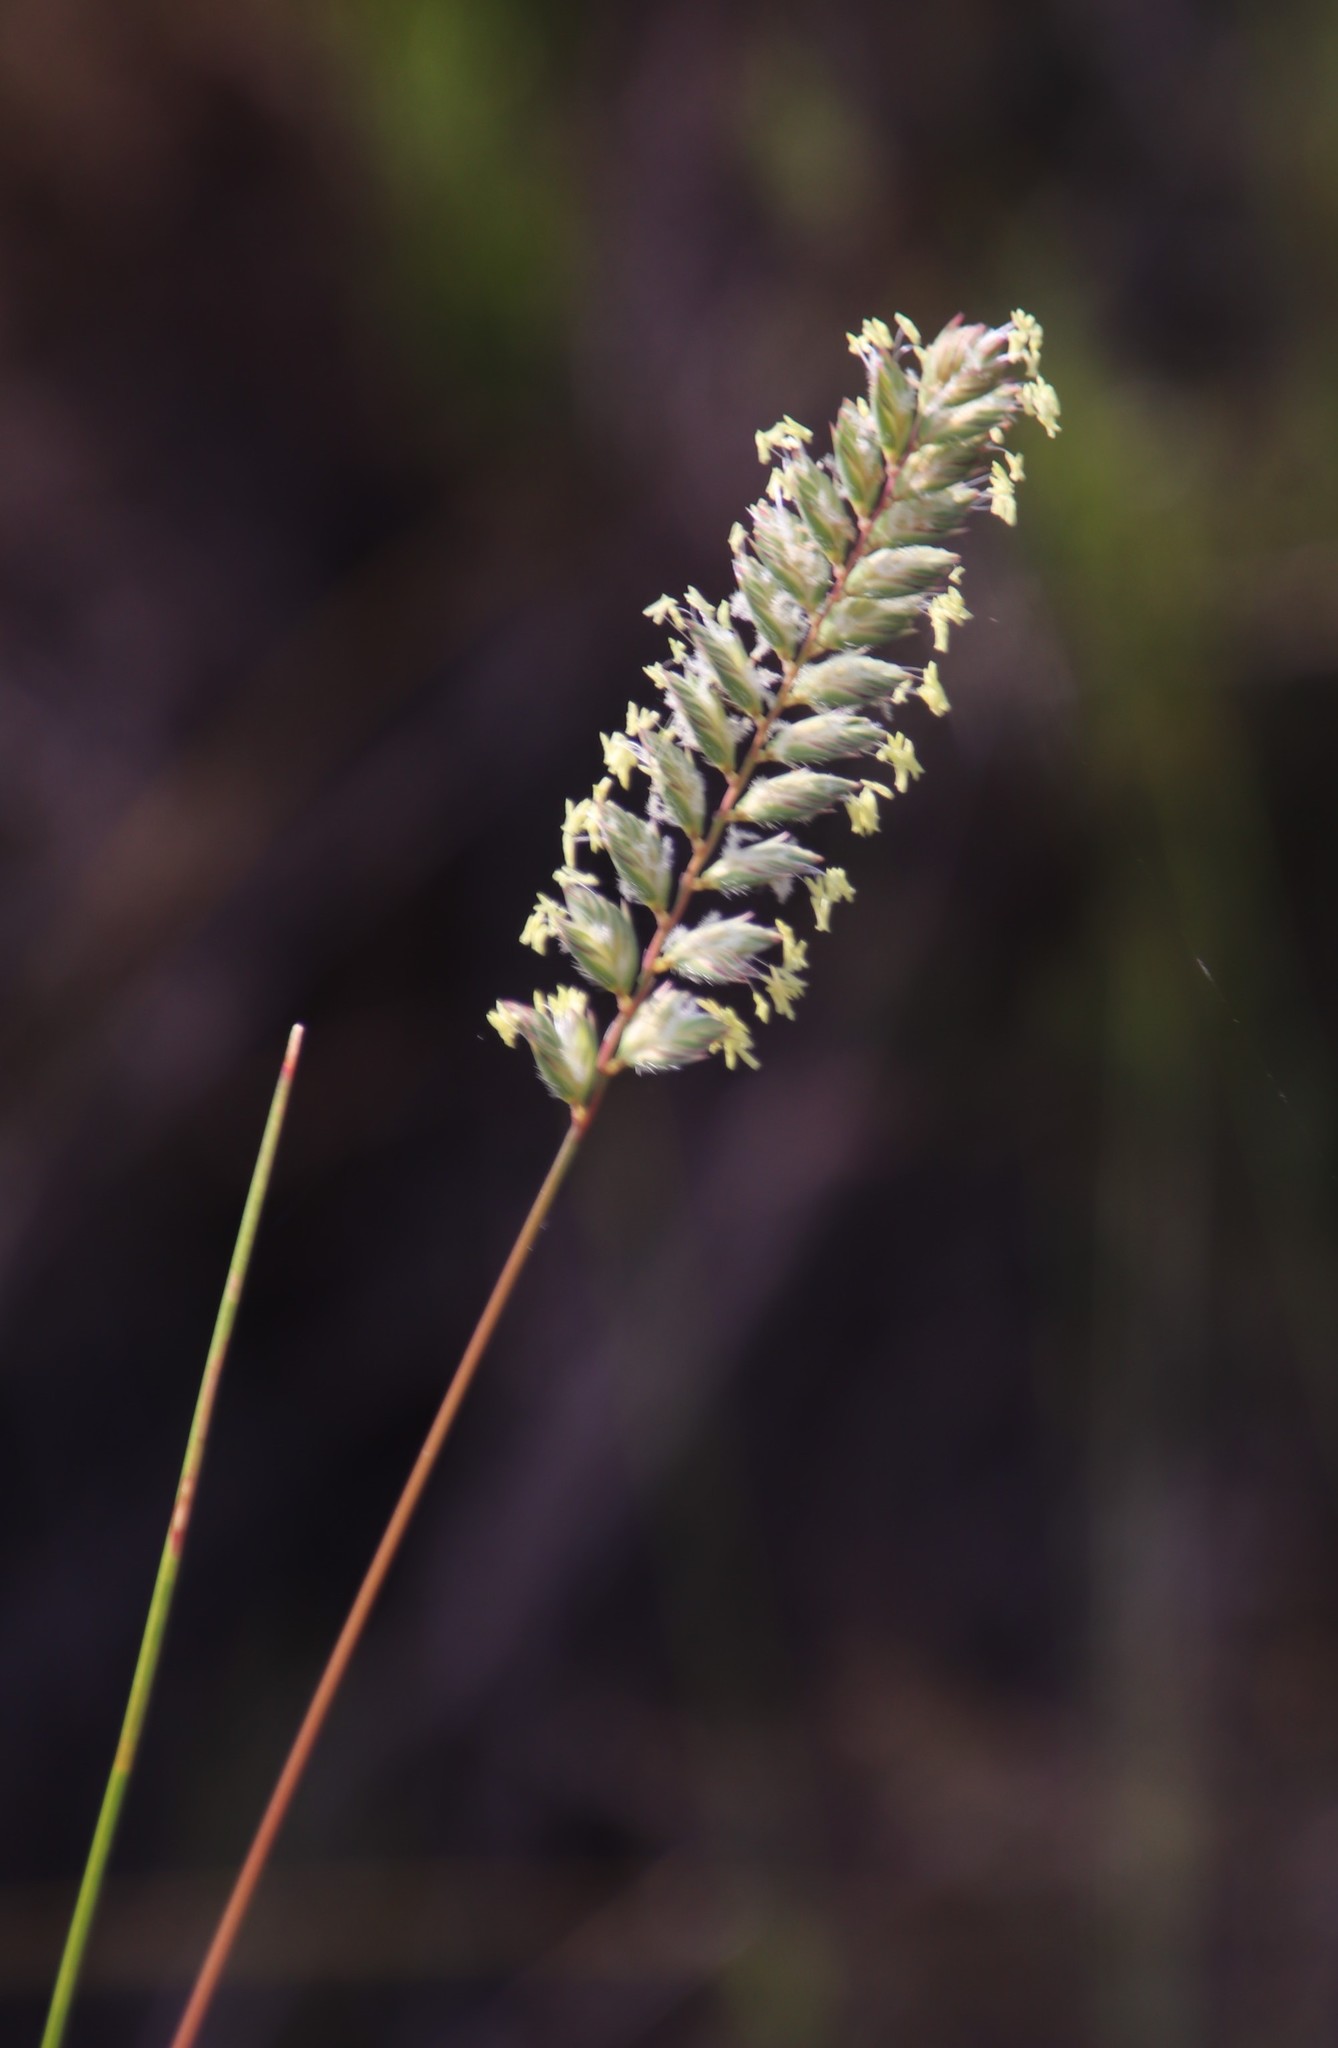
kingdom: Plantae
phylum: Tracheophyta
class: Liliopsida
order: Poales
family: Poaceae
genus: Tribolium
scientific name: Tribolium brachystachyum
